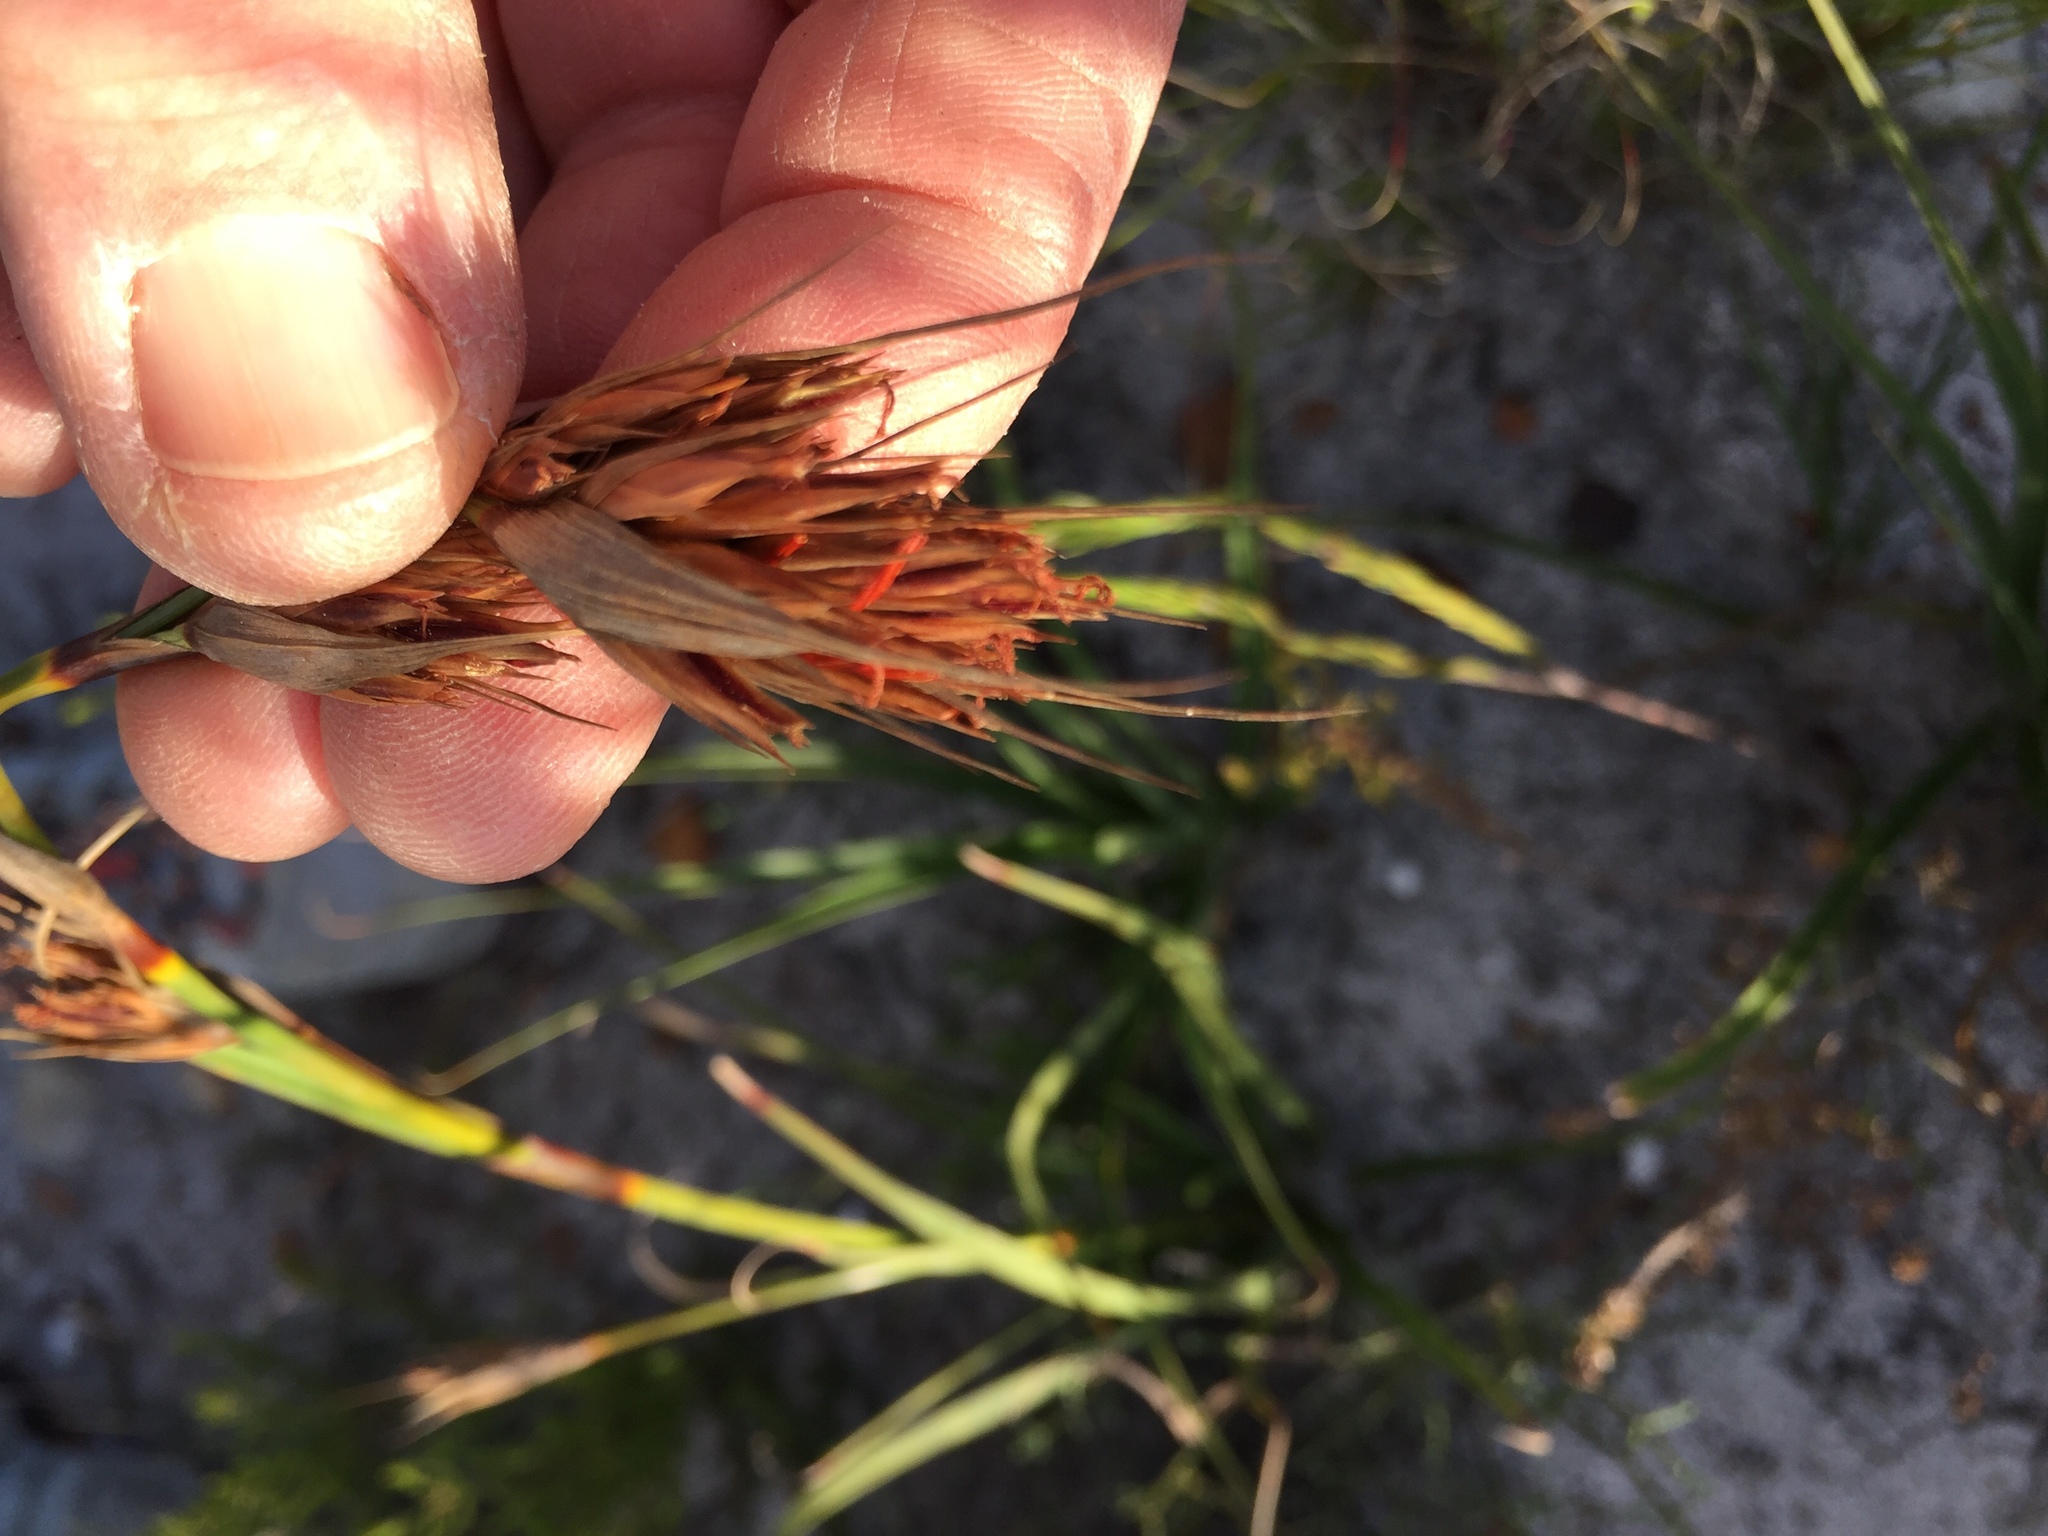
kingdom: Plantae
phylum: Tracheophyta
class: Liliopsida
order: Poales
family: Cyperaceae
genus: Tetraria
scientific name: Tetraria eximia
